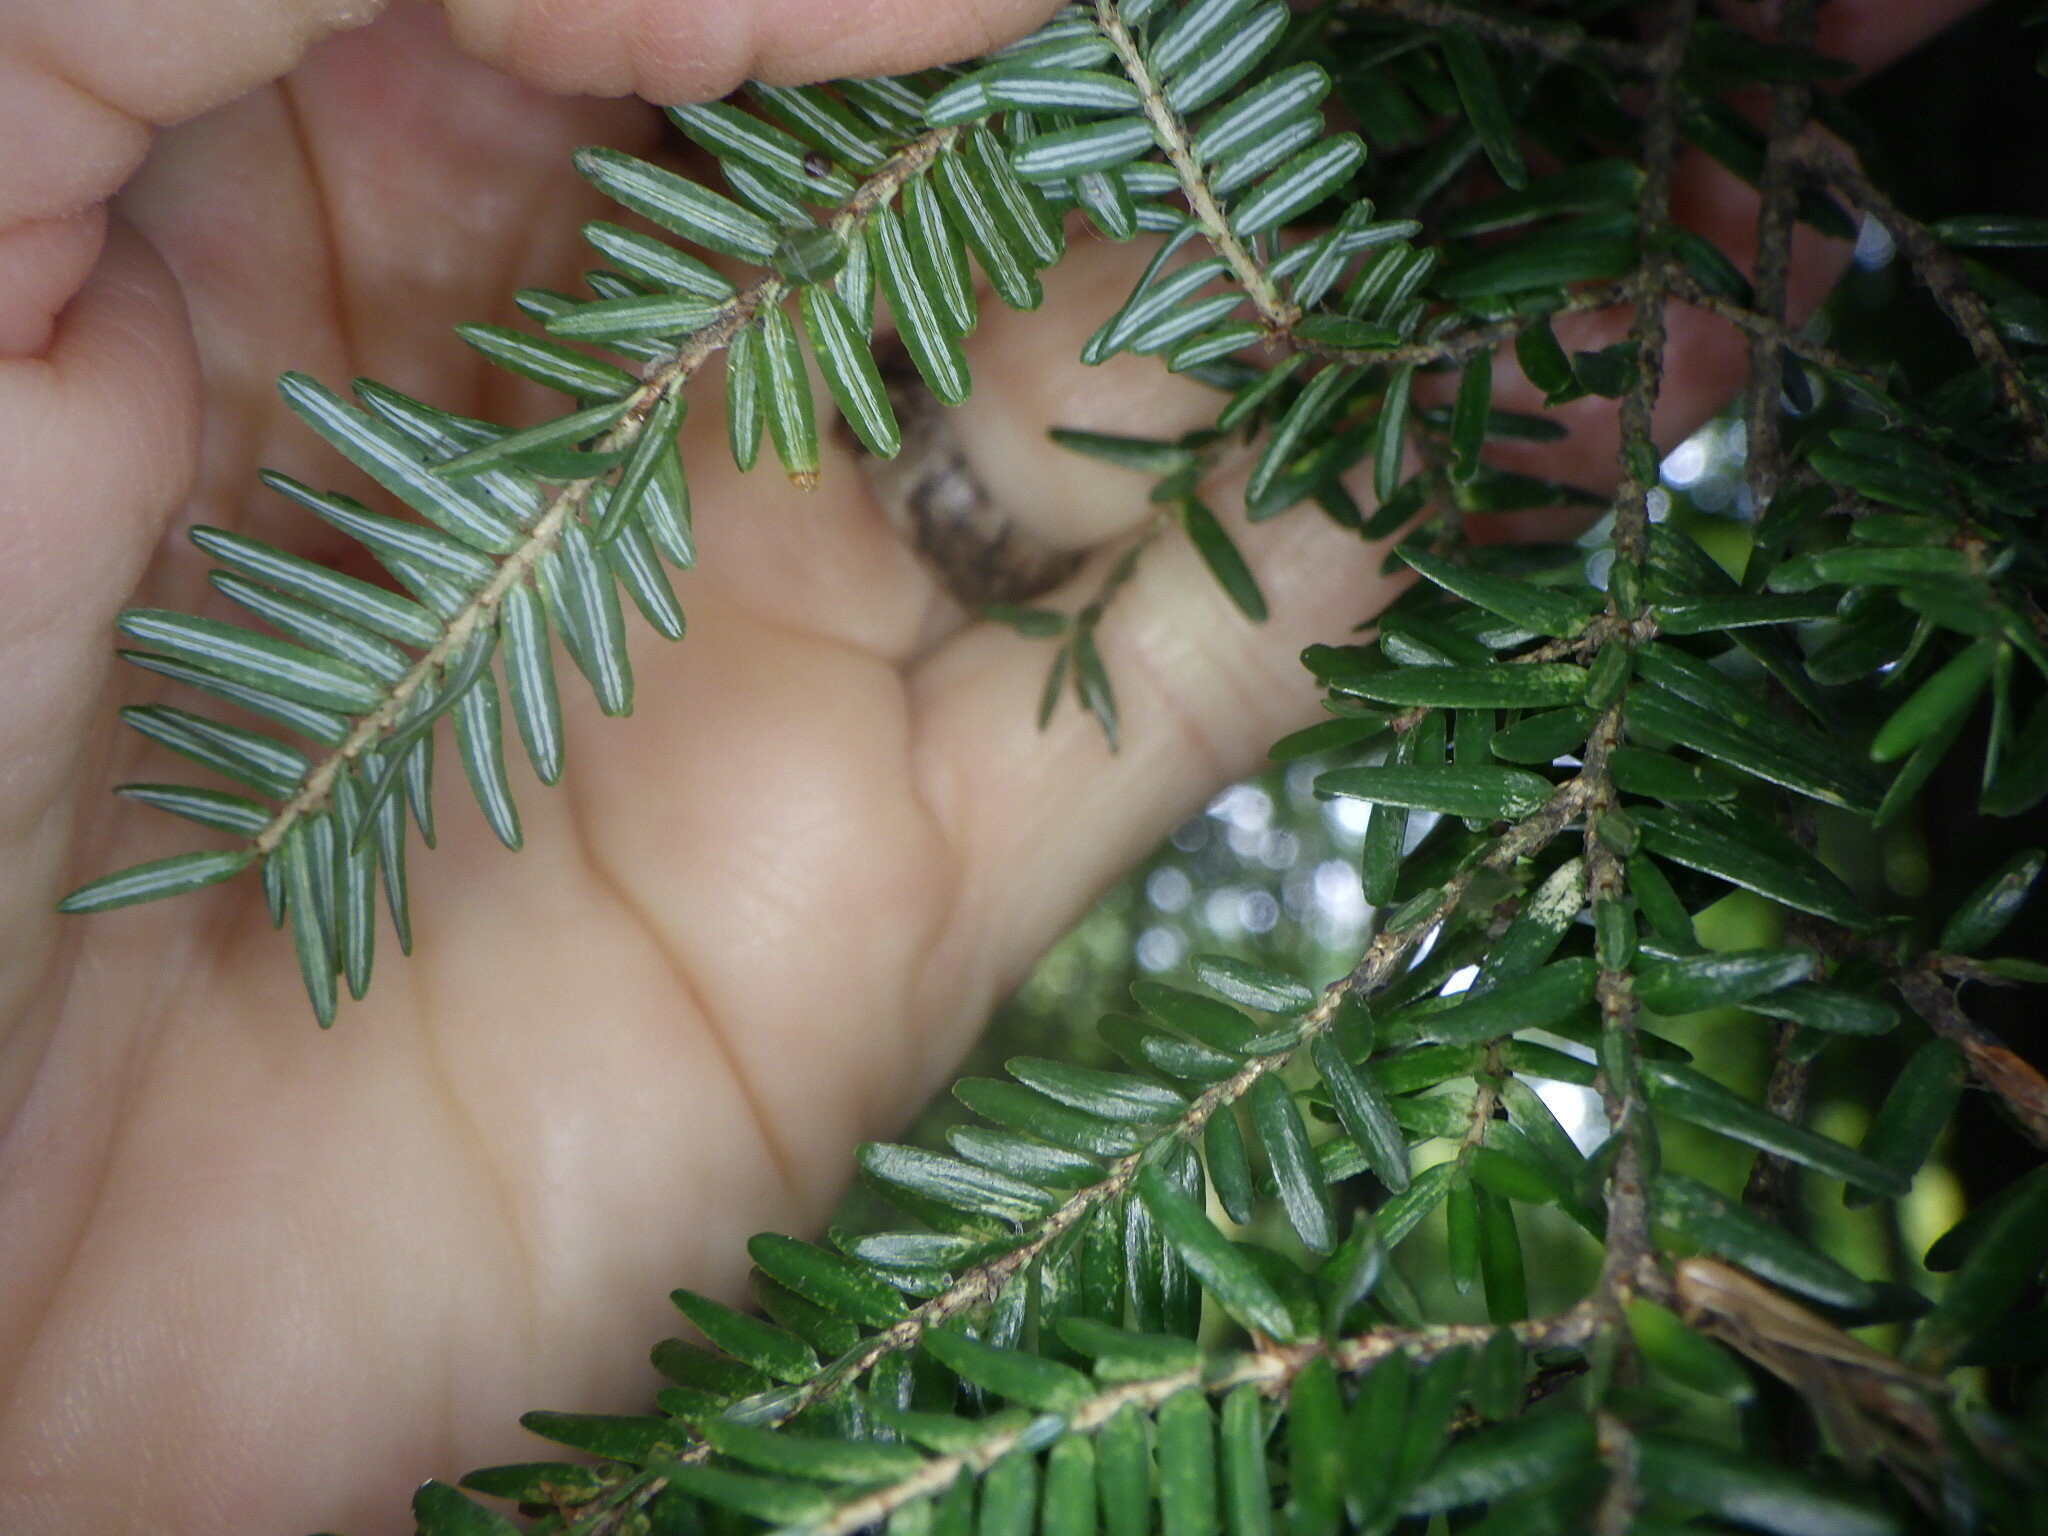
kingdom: Plantae
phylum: Tracheophyta
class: Pinopsida
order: Pinales
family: Pinaceae
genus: Tsuga
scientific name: Tsuga canadensis
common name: Eastern hemlock
